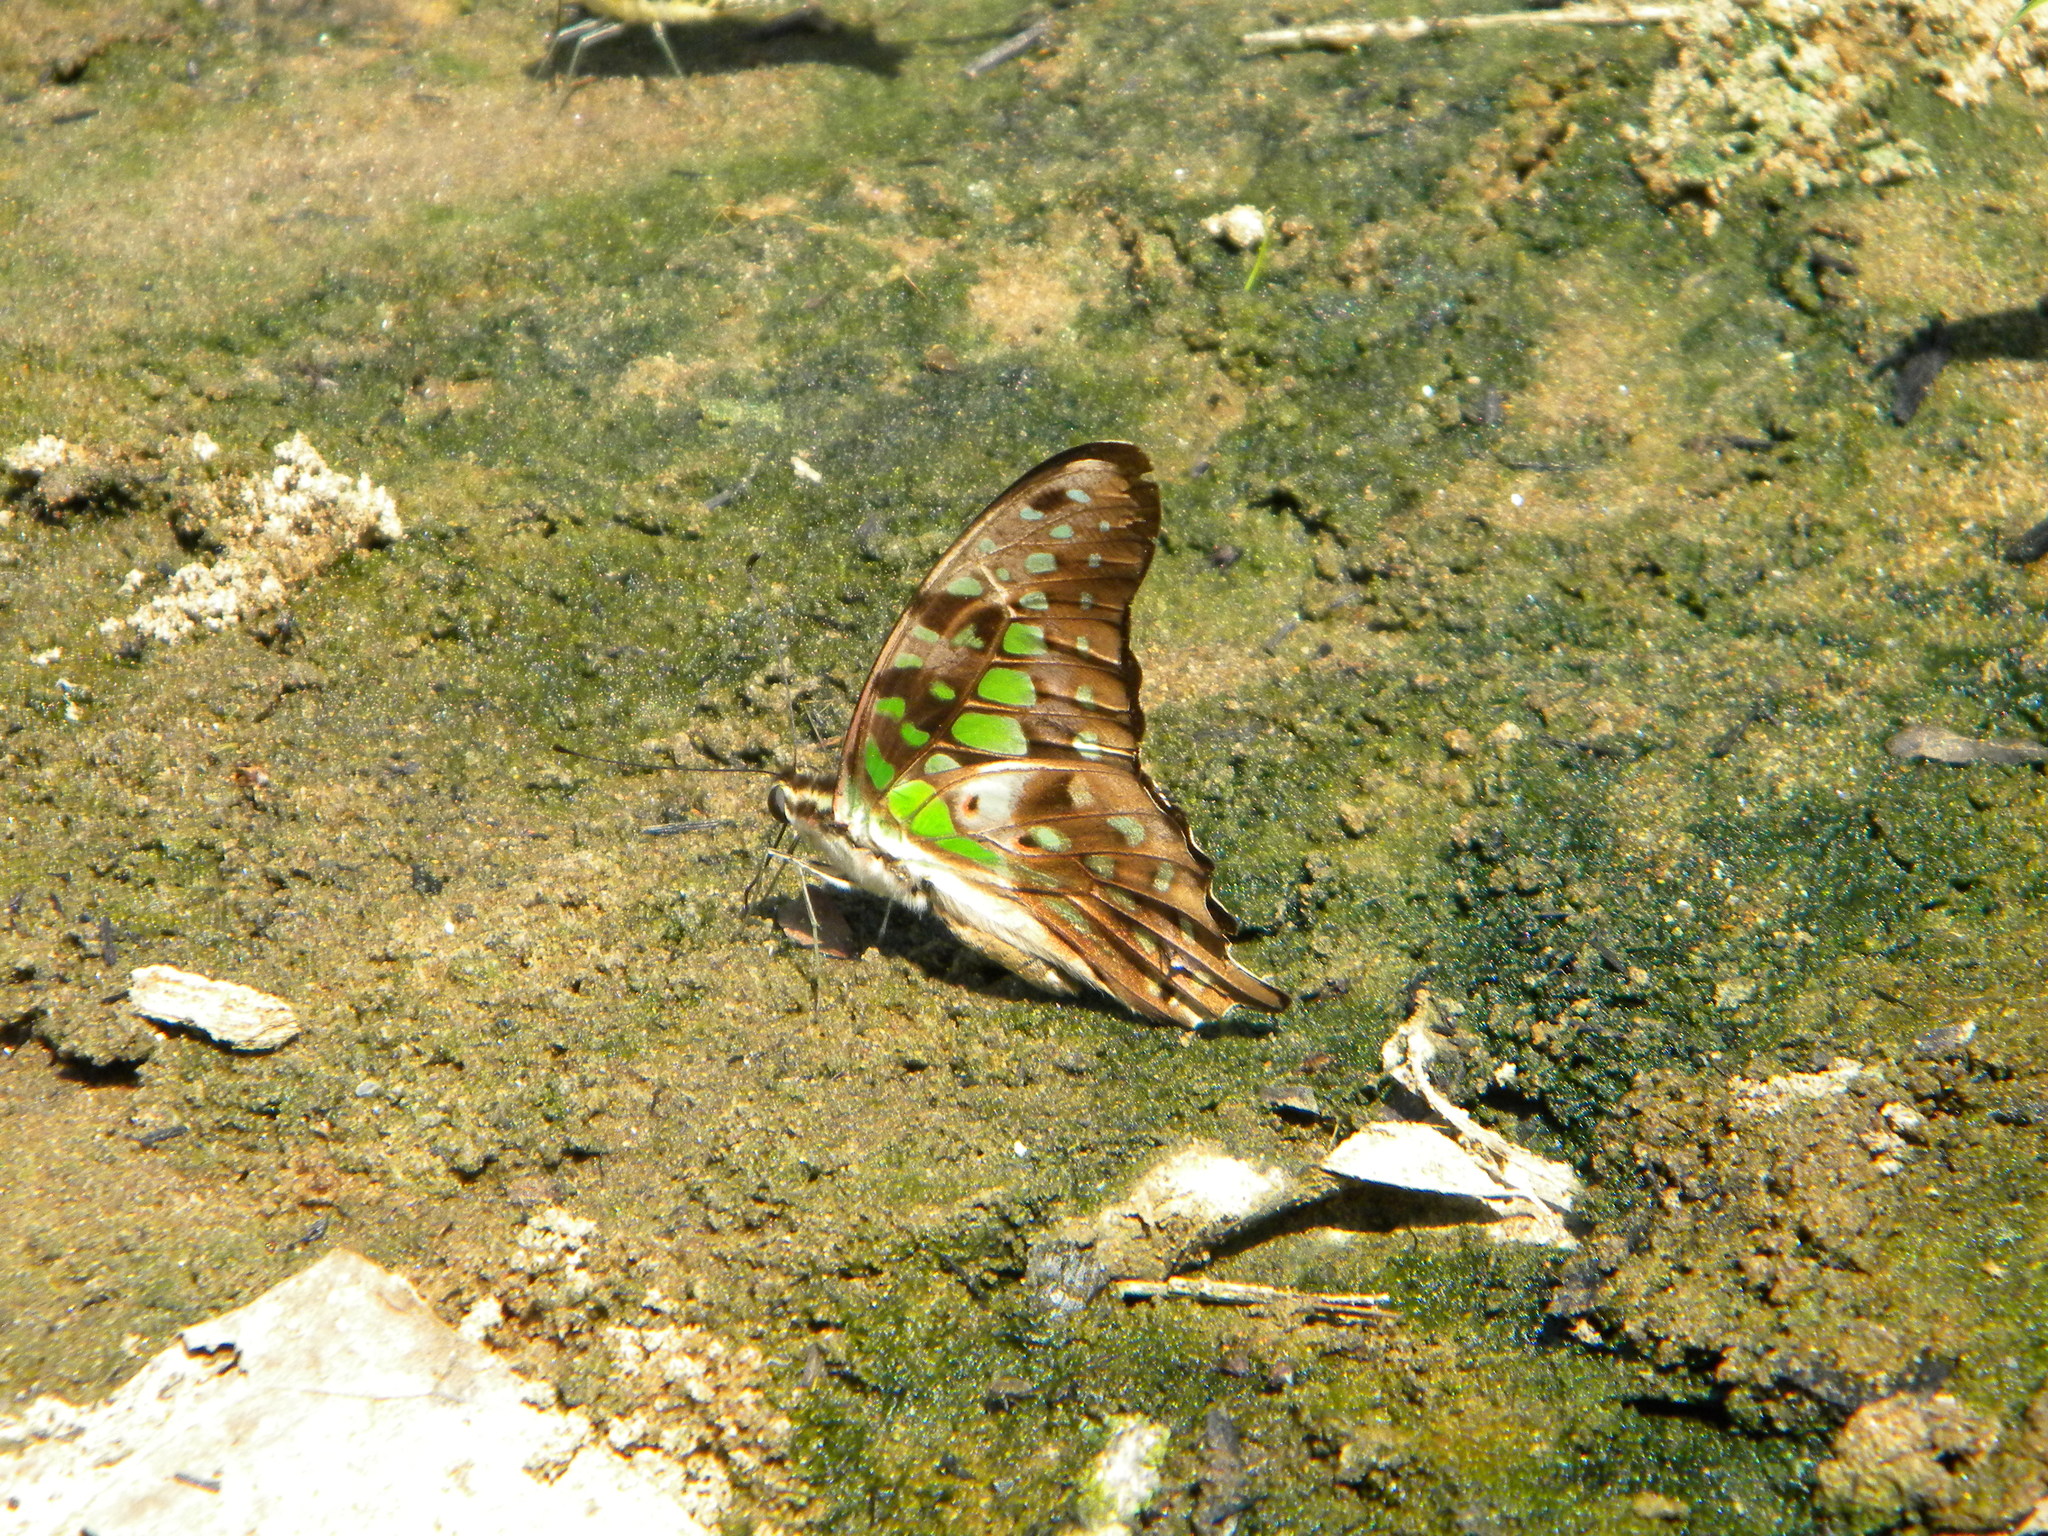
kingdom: Animalia
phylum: Arthropoda
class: Insecta
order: Lepidoptera
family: Papilionidae
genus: Graphium
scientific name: Graphium agamemnon
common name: Tailed jay
